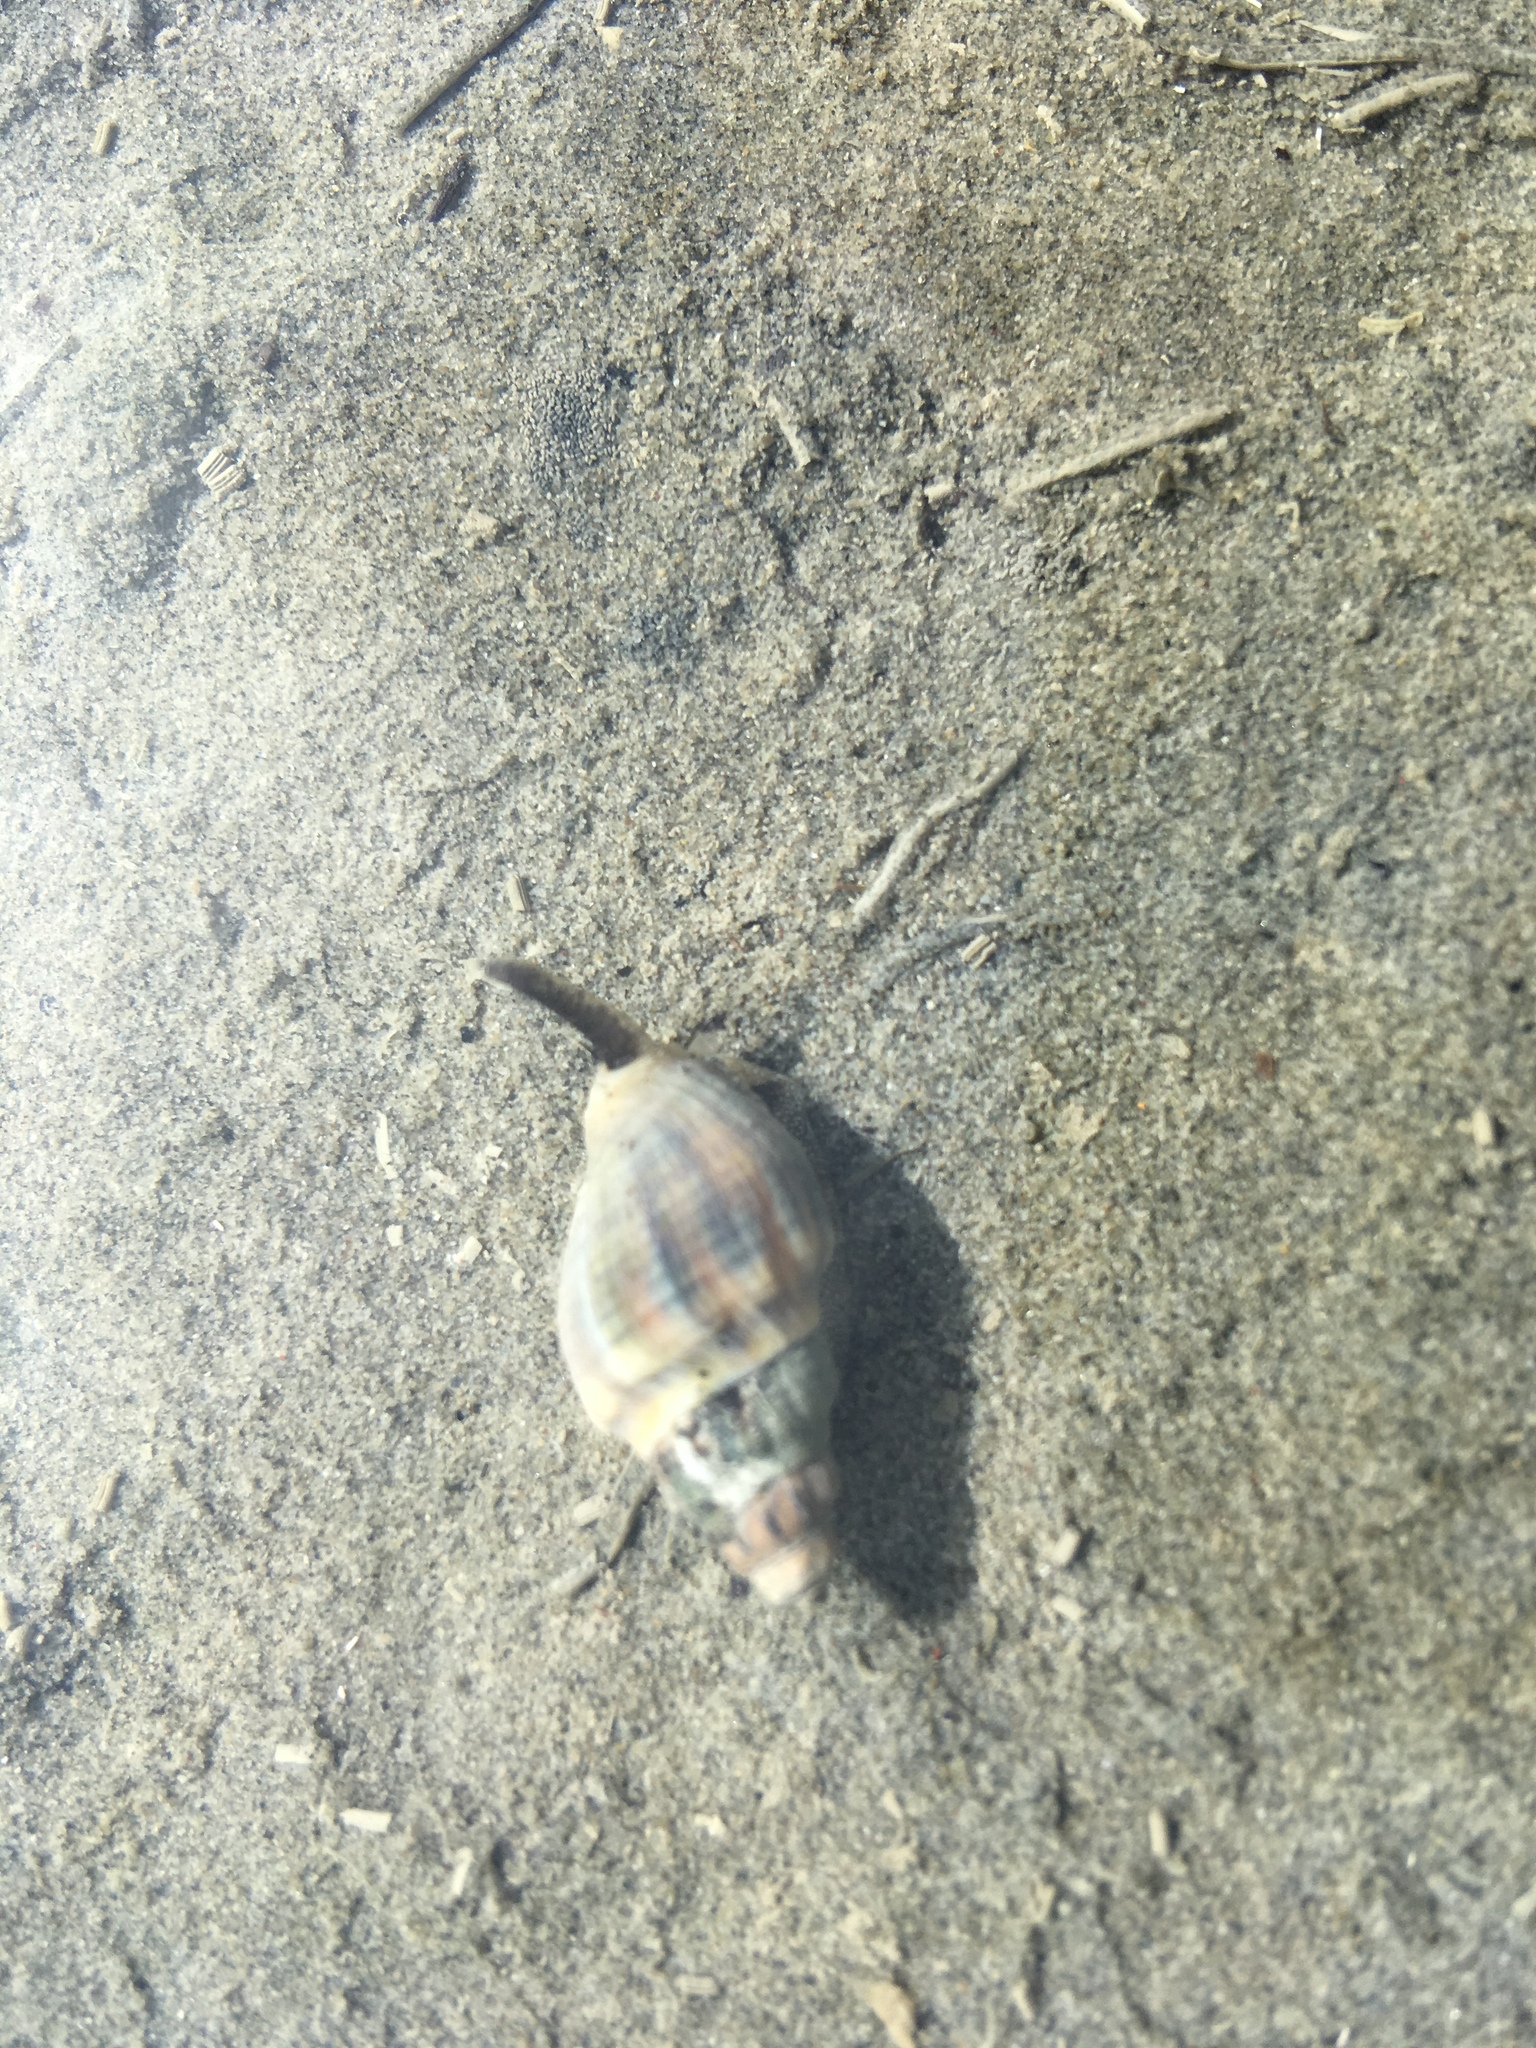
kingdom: Animalia
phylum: Mollusca
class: Gastropoda
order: Neogastropoda
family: Cominellidae
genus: Cominella
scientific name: Cominella glandiformis
